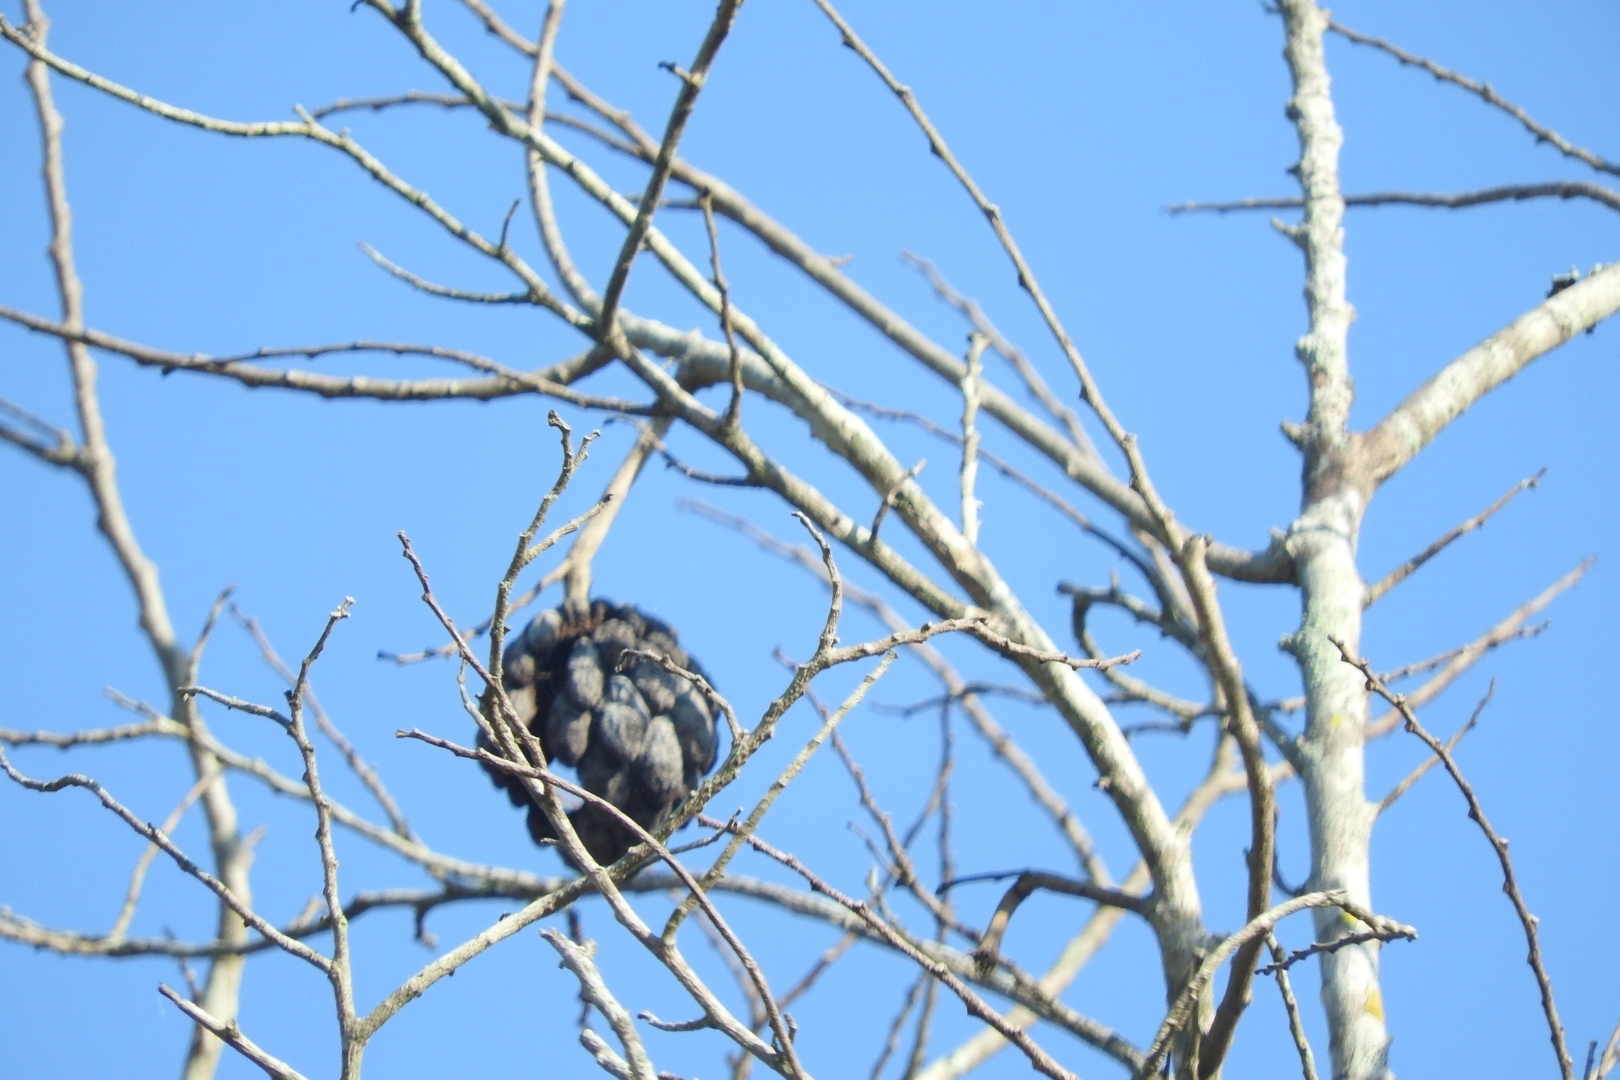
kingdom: Plantae
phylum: Tracheophyta
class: Magnoliopsida
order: Magnoliales
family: Annonaceae
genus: Annona
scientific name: Annona squamosa
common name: Custard-apple
